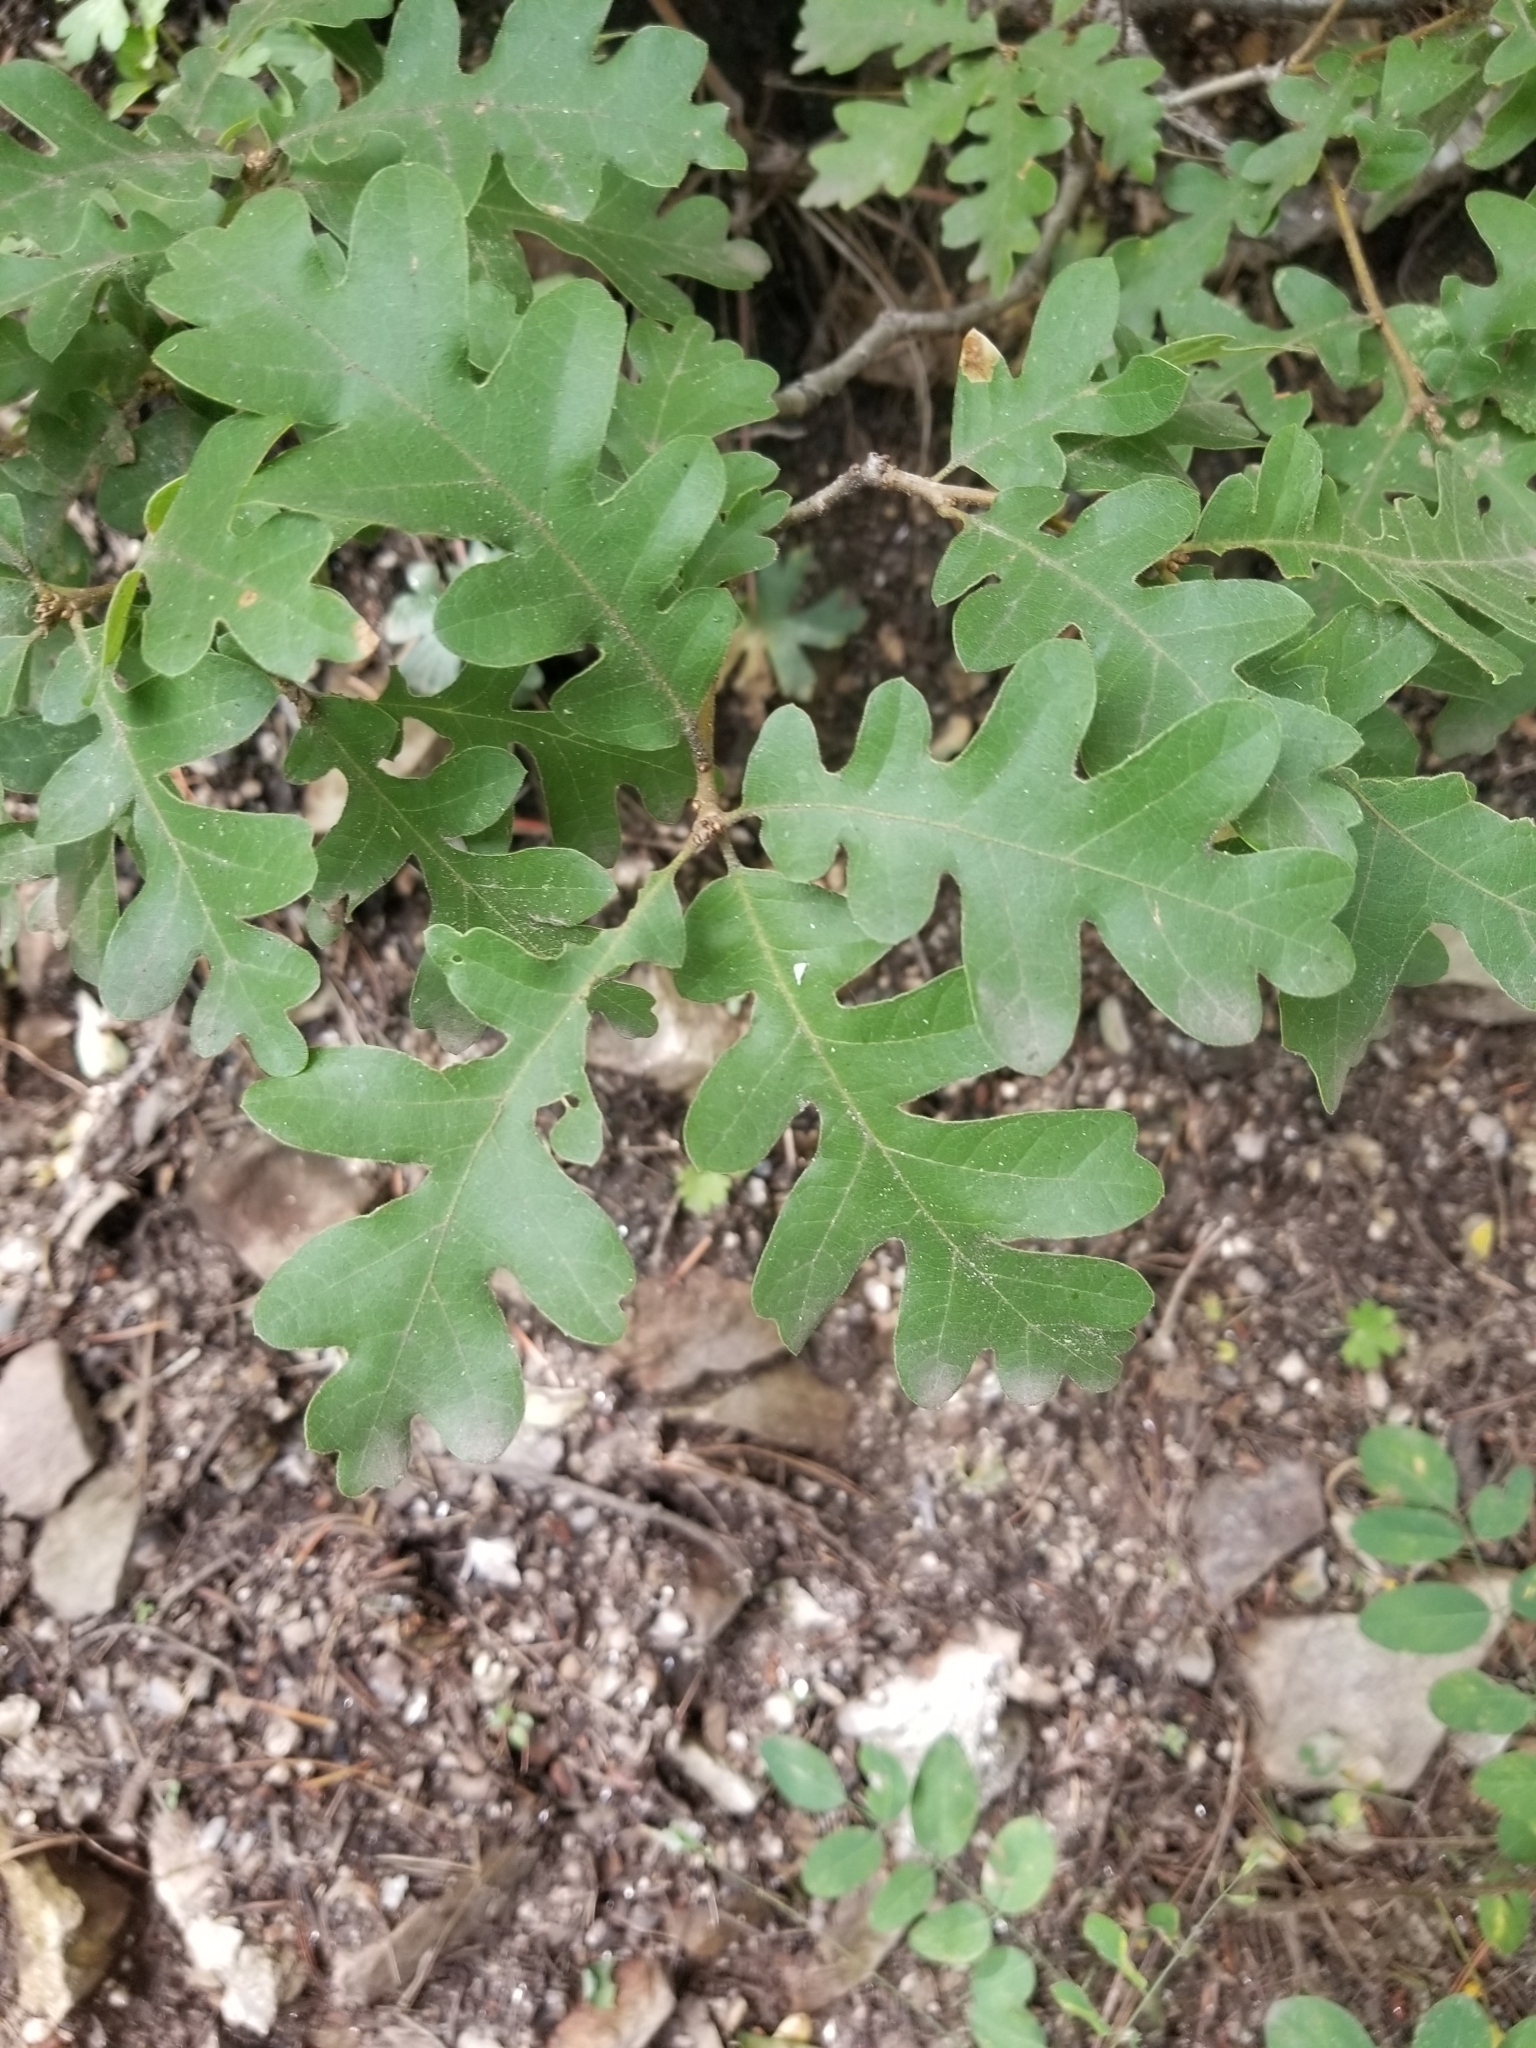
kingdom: Plantae
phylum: Tracheophyta
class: Magnoliopsida
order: Fagales
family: Fagaceae
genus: Quercus
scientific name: Quercus gambelii
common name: Gambel oak
